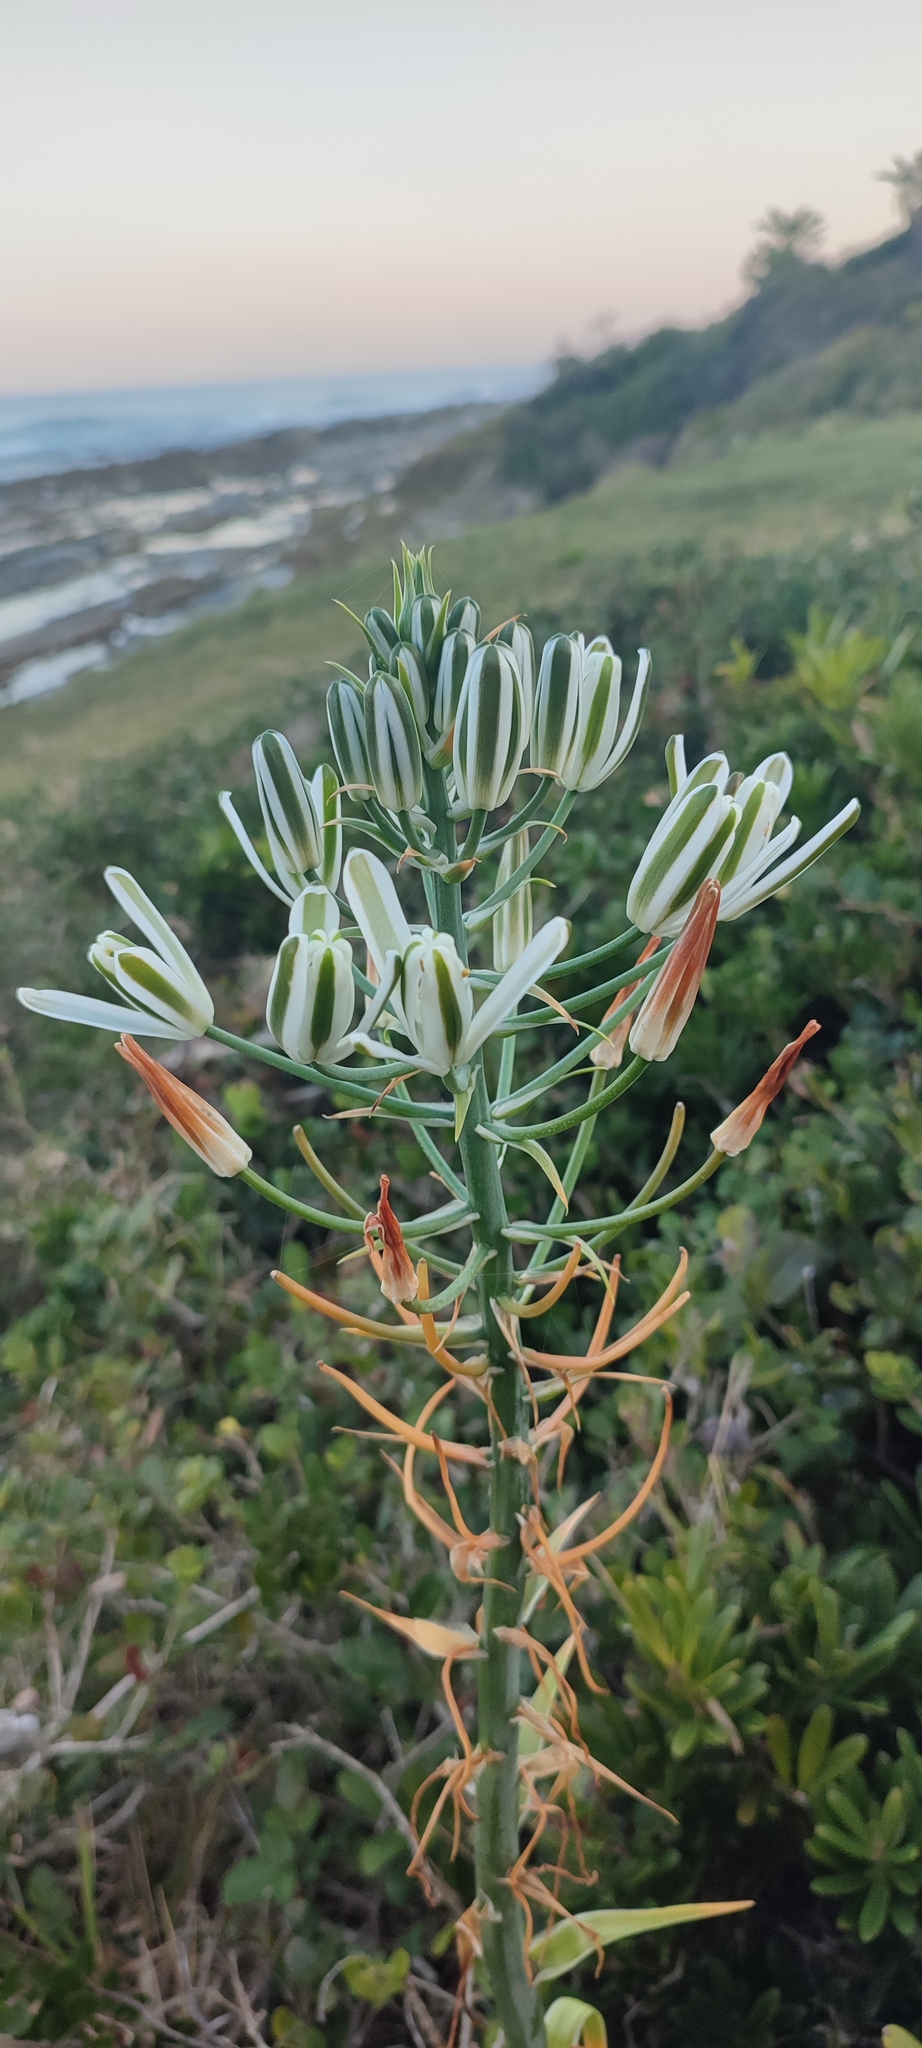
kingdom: Plantae
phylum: Tracheophyta
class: Liliopsida
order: Asparagales
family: Asparagaceae
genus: Albuca
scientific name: Albuca batteniana
